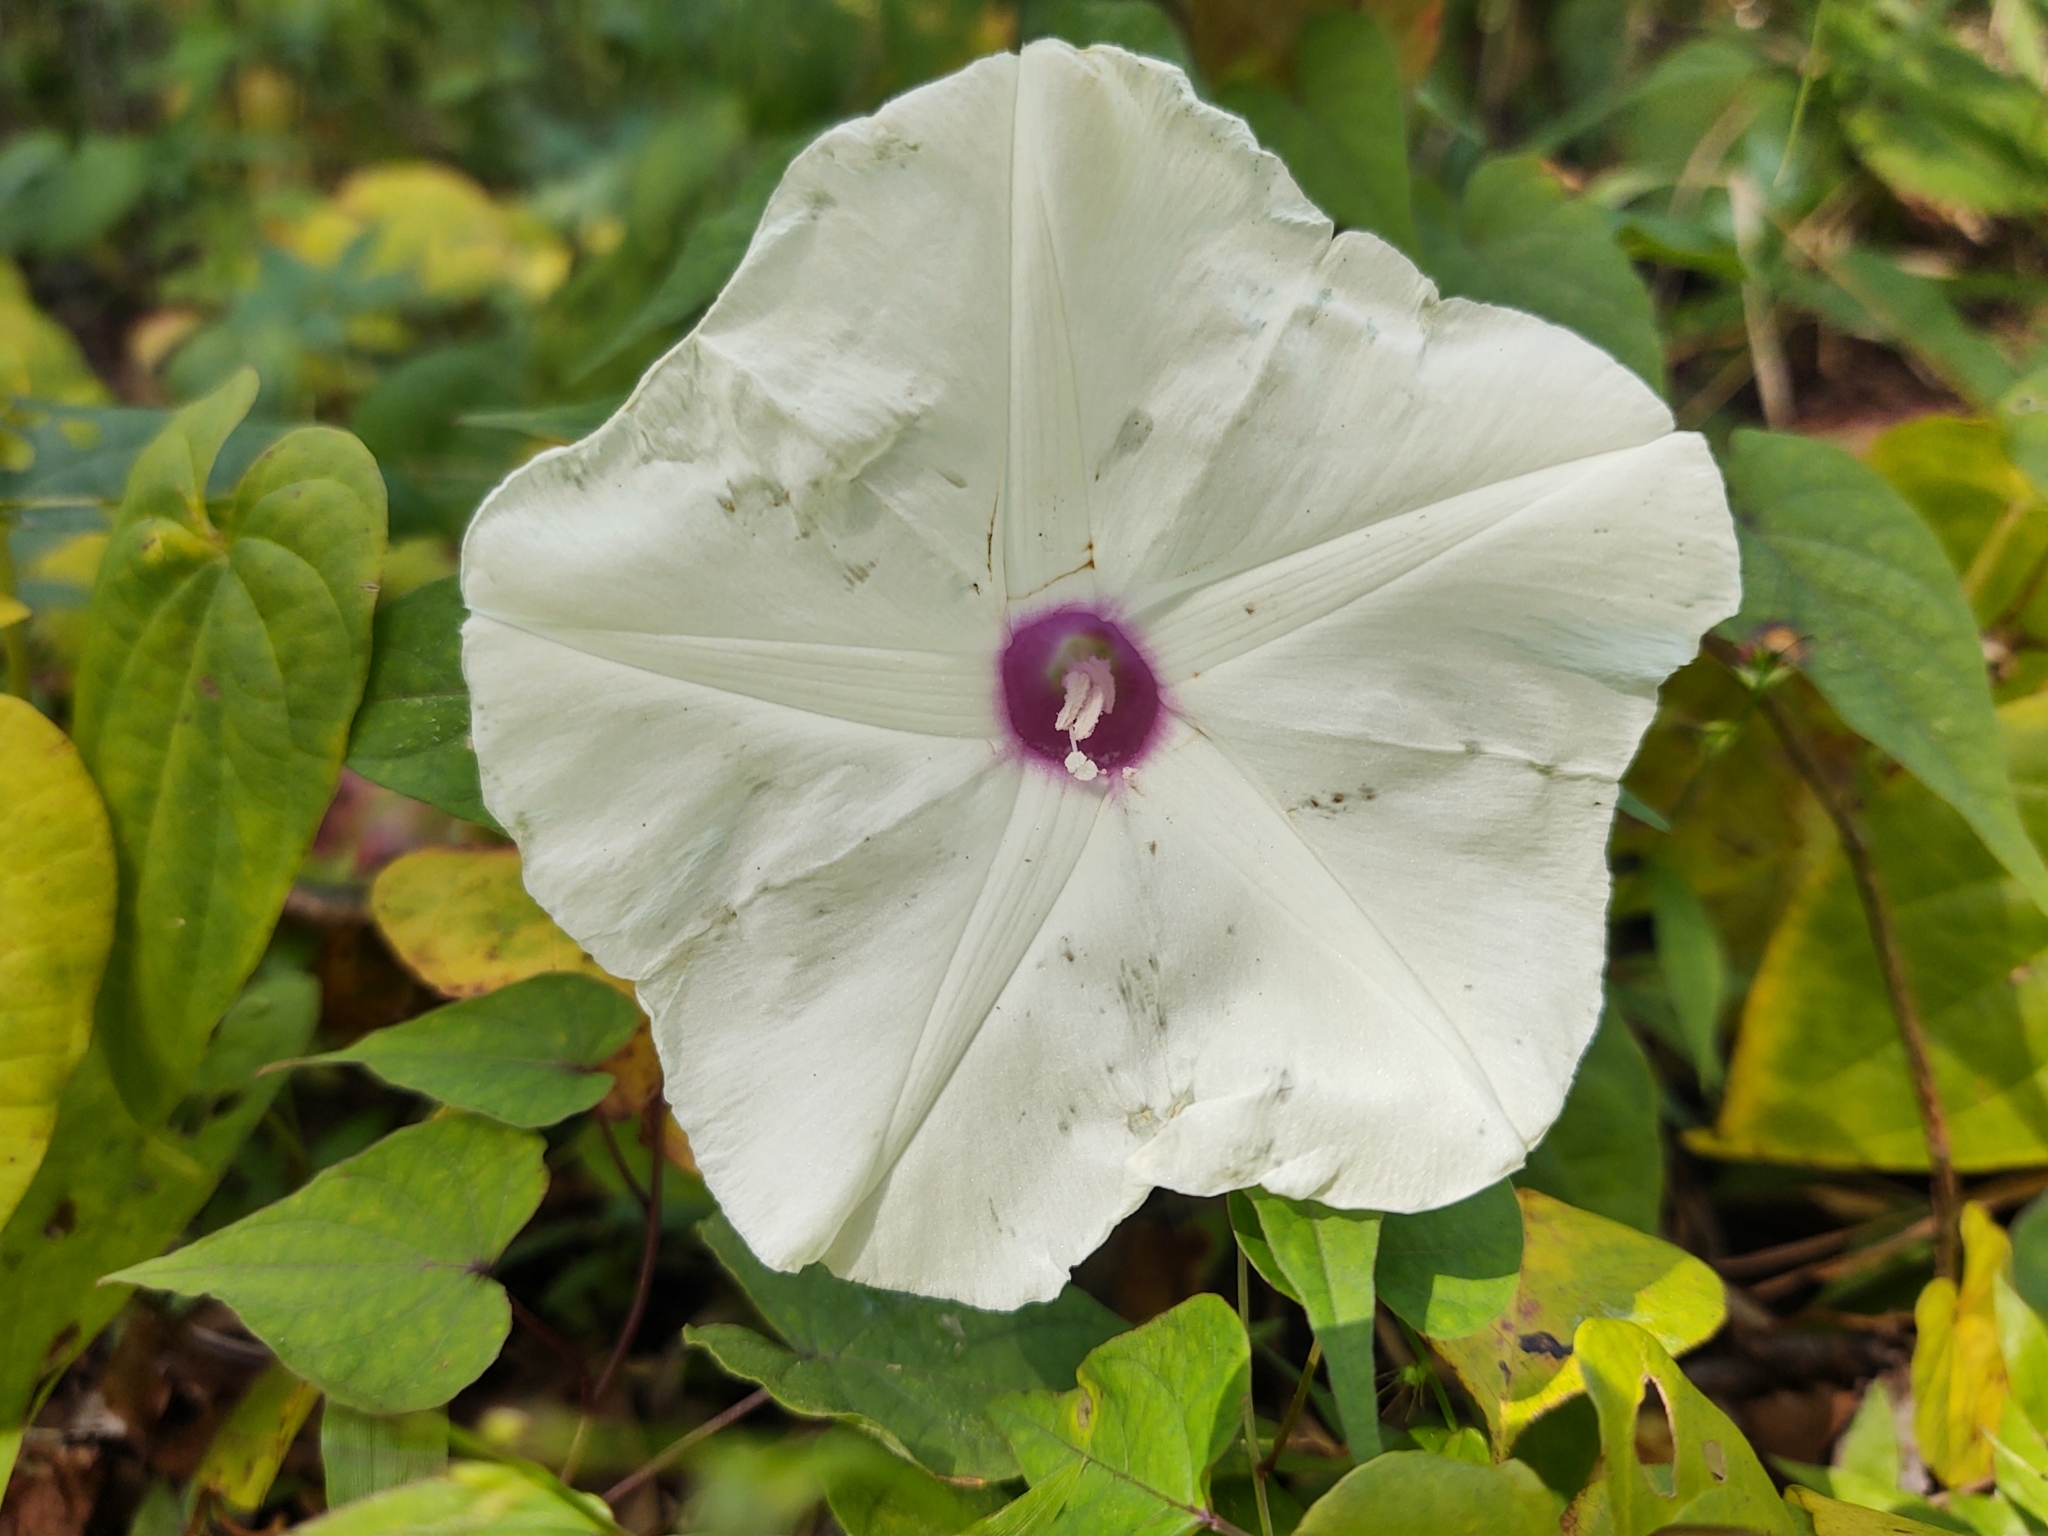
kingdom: Plantae
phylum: Tracheophyta
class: Magnoliopsida
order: Solanales
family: Convolvulaceae
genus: Ipomoea
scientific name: Ipomoea pandurata
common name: Man-of-the-earth
